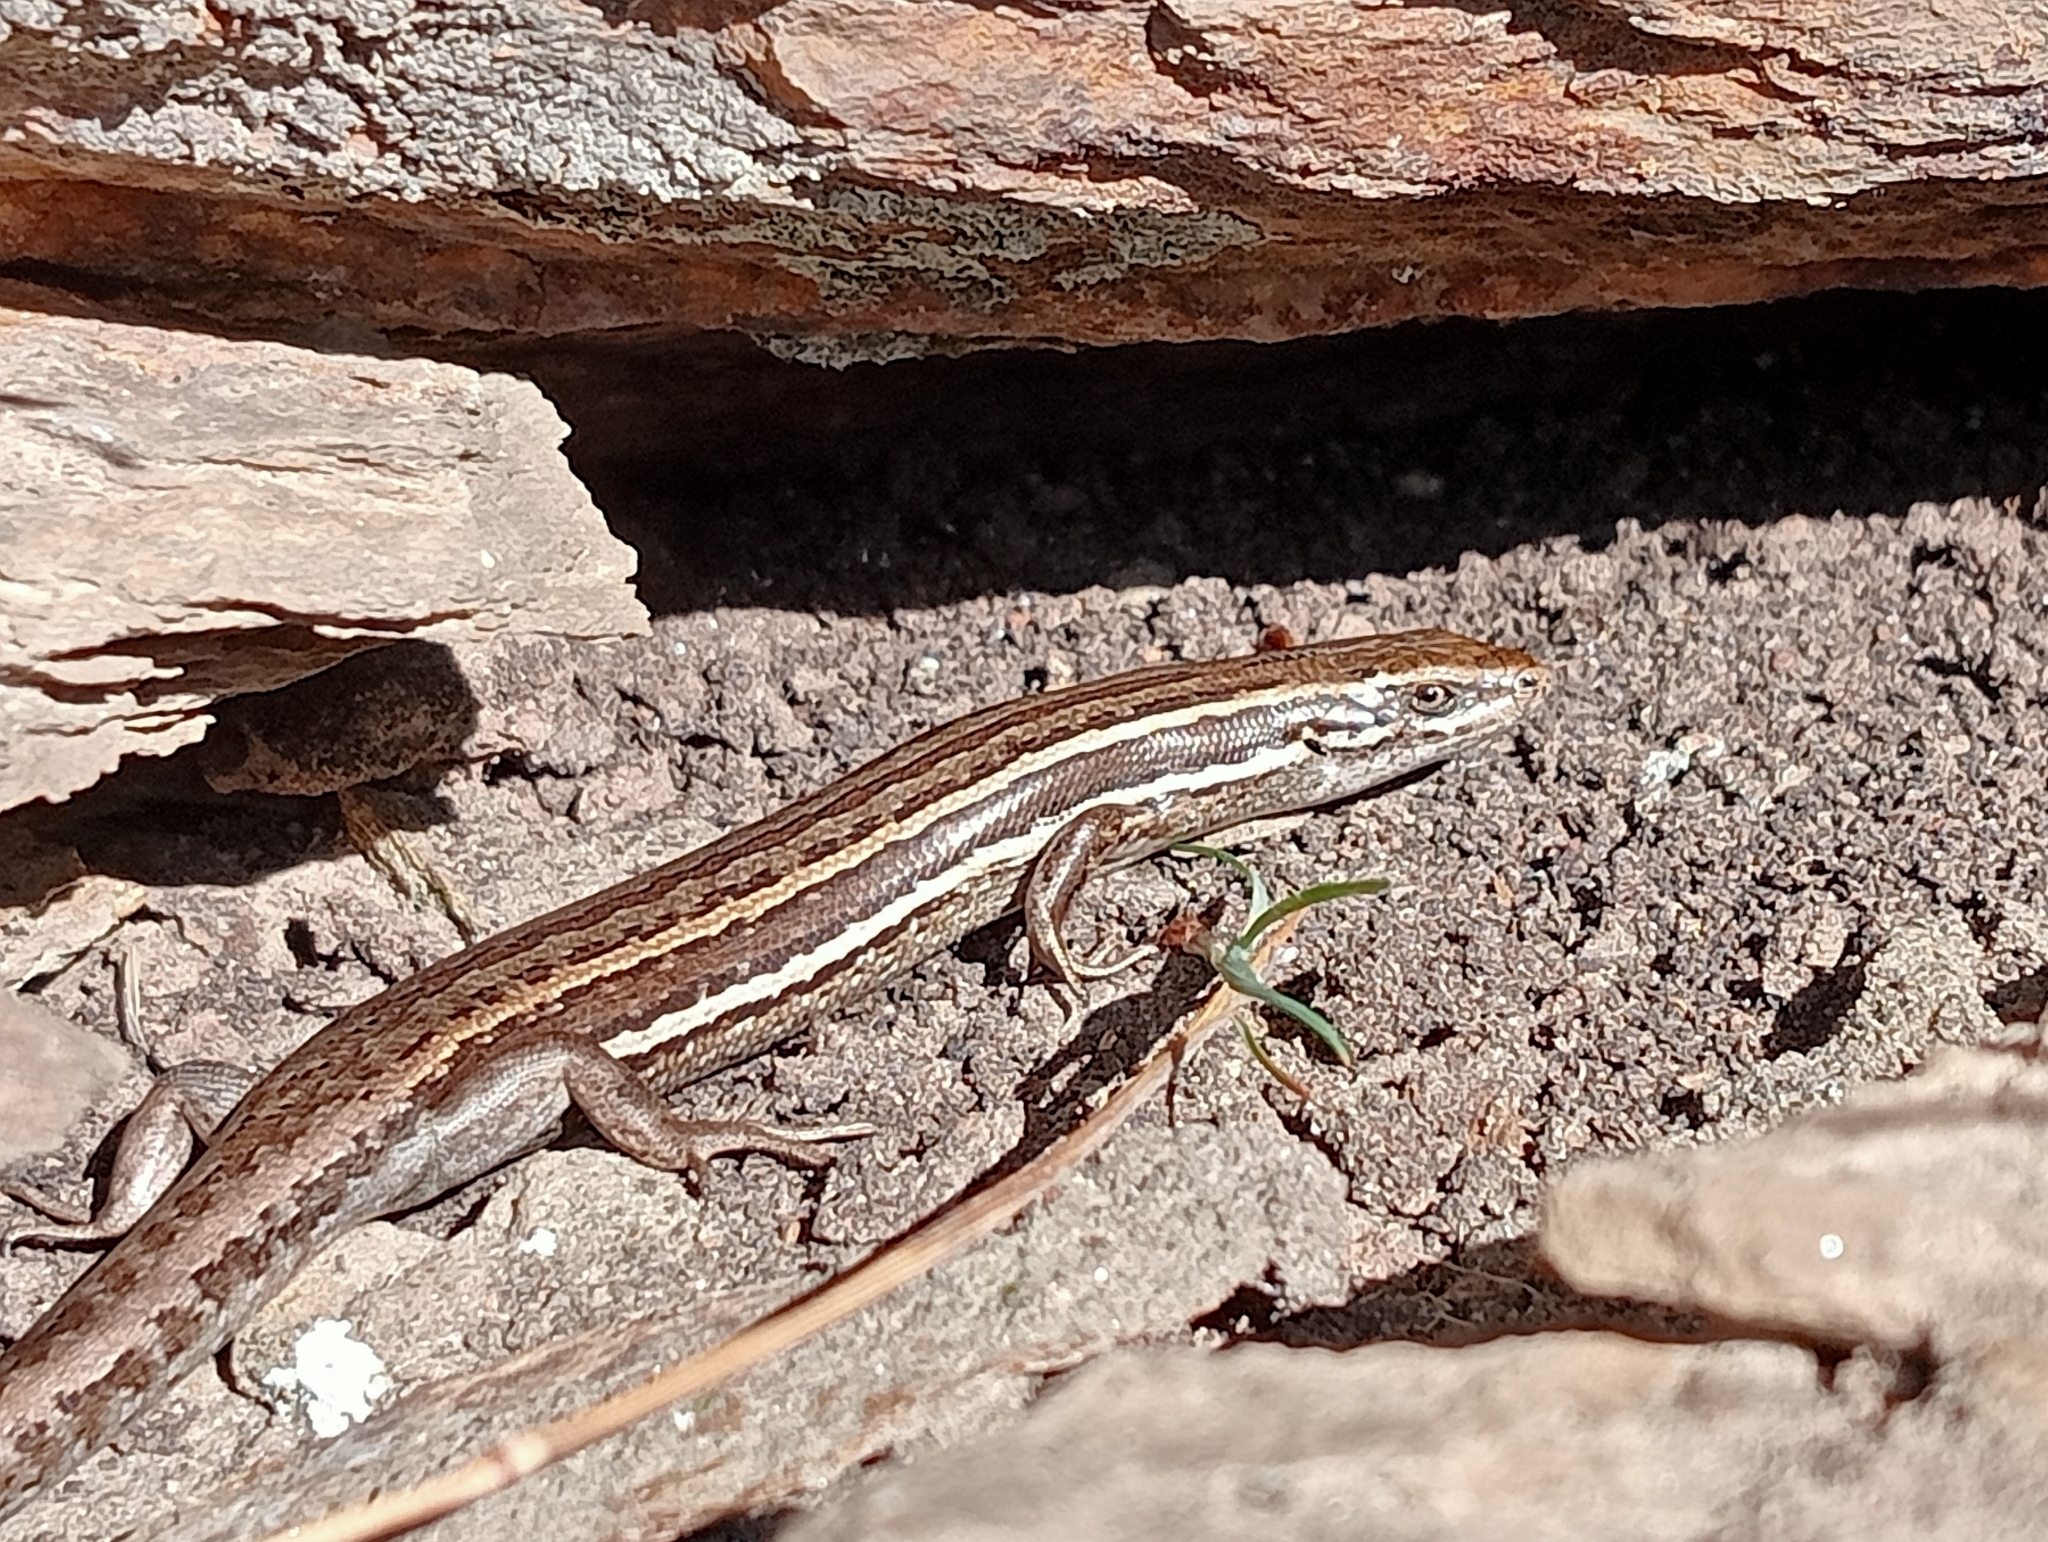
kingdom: Animalia
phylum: Chordata
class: Squamata
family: Scincidae
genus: Oligosoma
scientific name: Oligosoma maccanni
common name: Mccann’s skink
